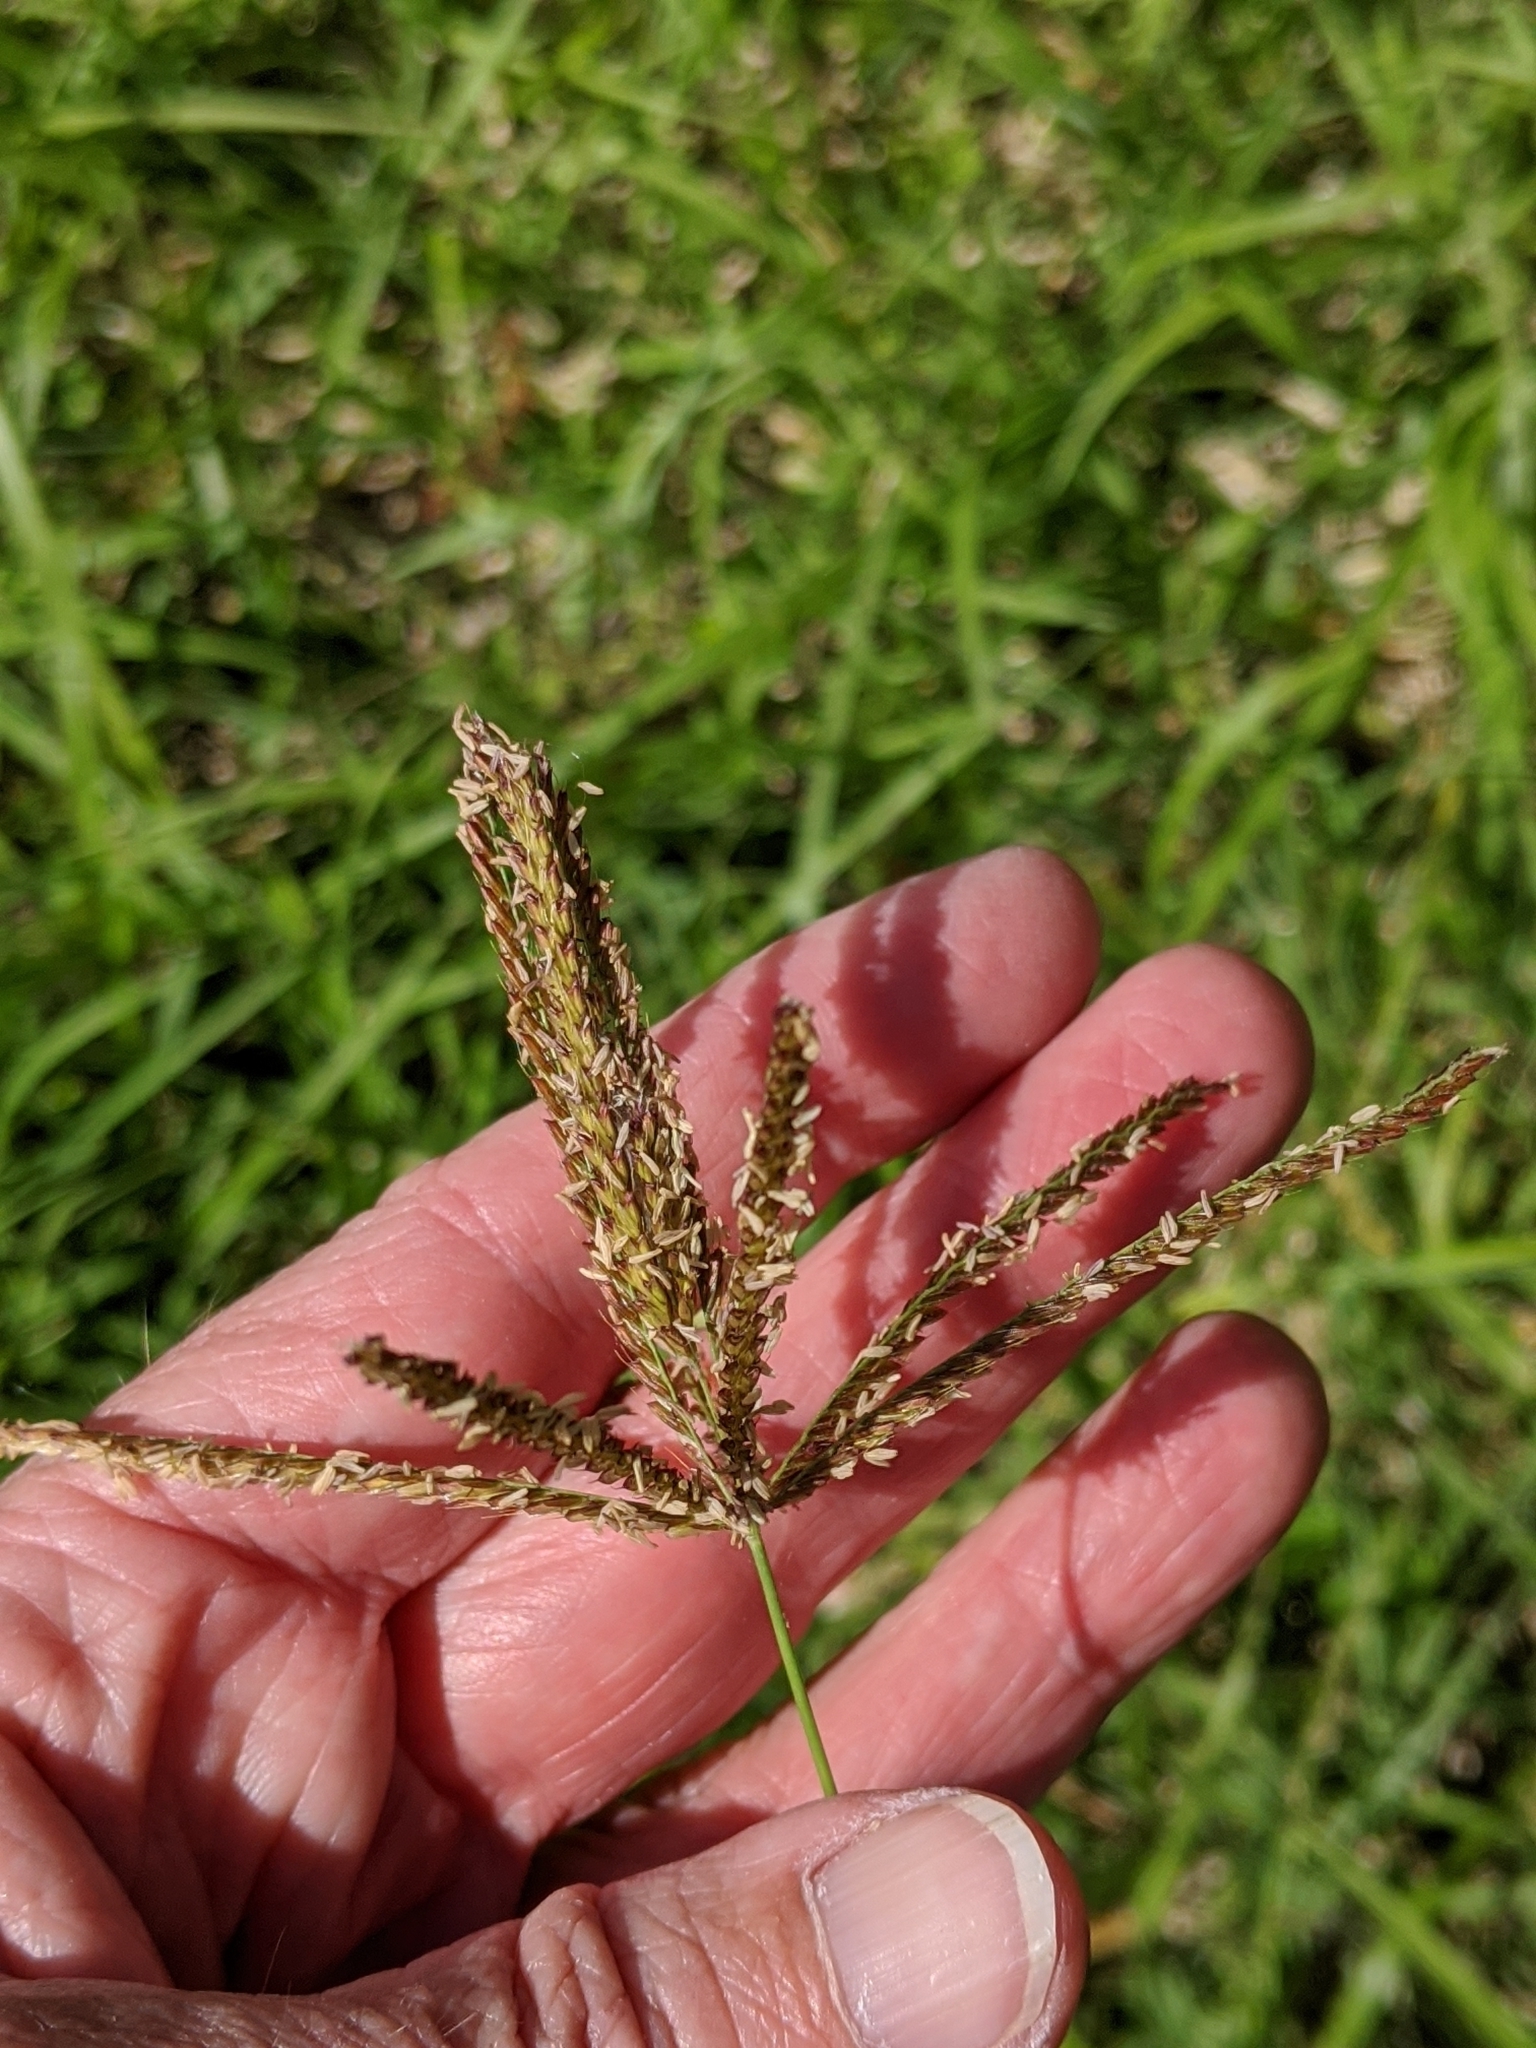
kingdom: Plantae
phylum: Tracheophyta
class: Liliopsida
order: Poales
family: Poaceae
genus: Chloris
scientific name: Chloris gayana
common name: Rhodes grass
